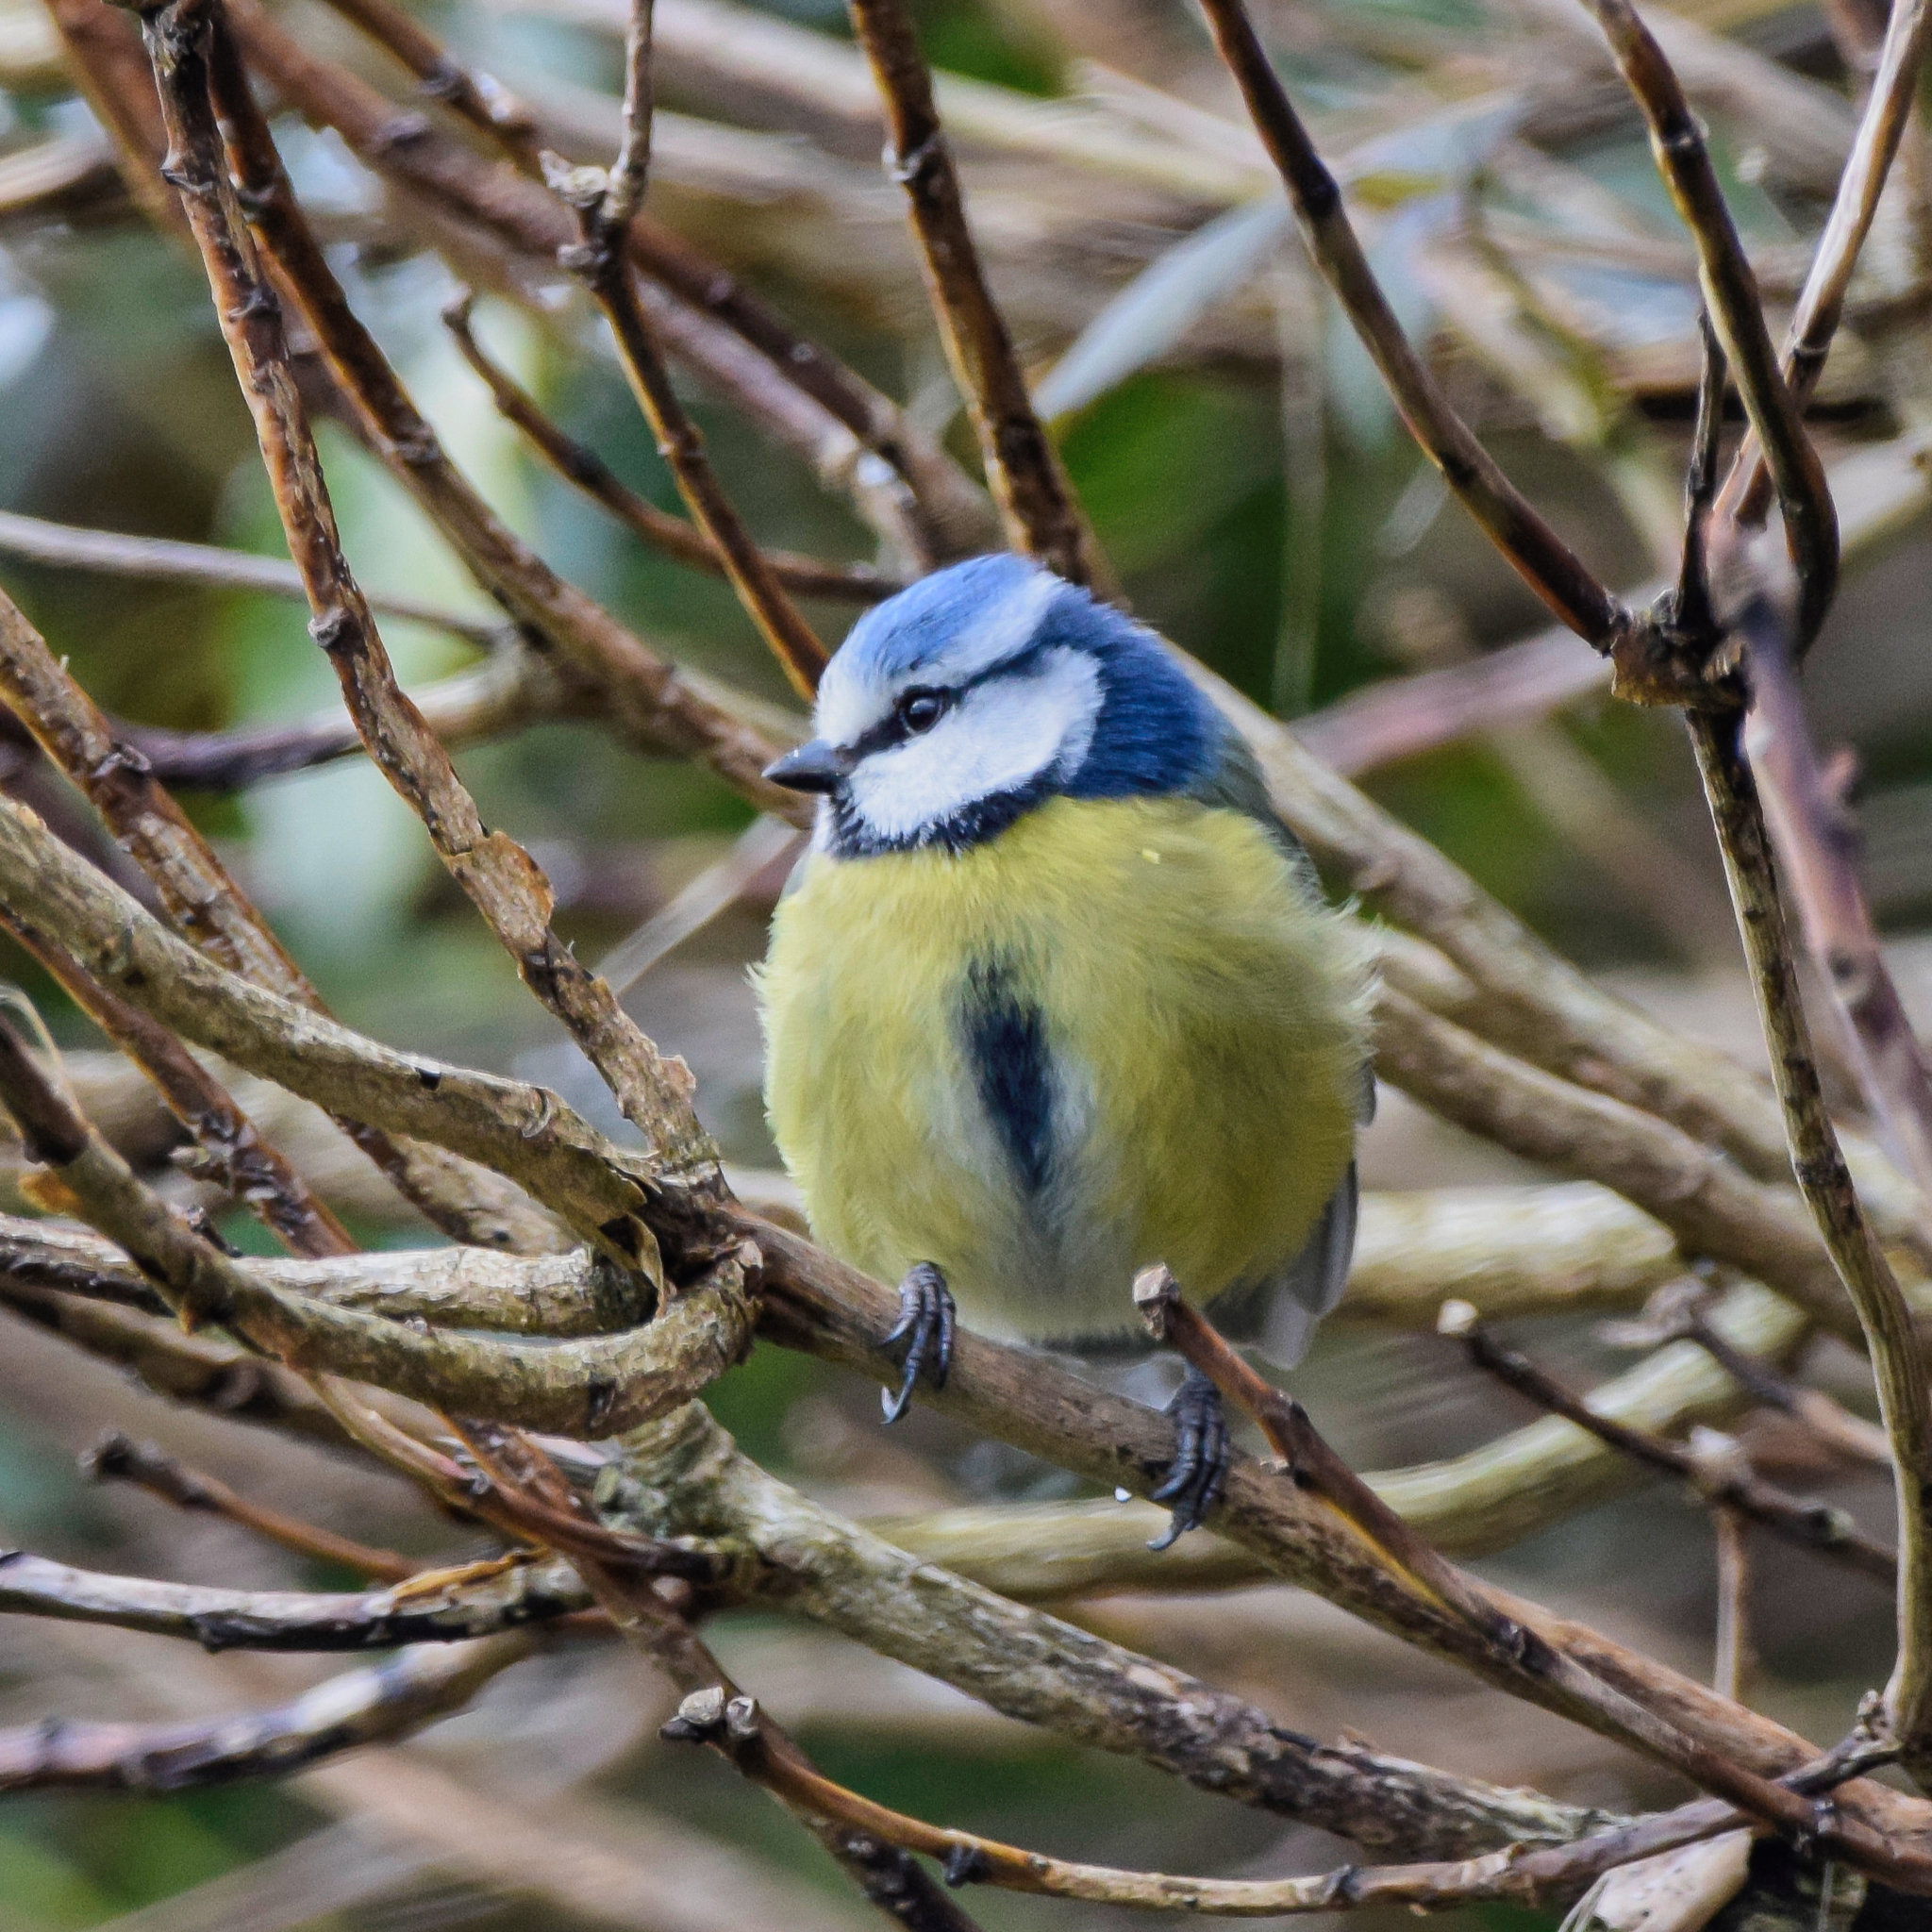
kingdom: Animalia
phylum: Chordata
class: Aves
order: Passeriformes
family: Paridae
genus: Cyanistes
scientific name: Cyanistes caeruleus
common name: Eurasian blue tit
